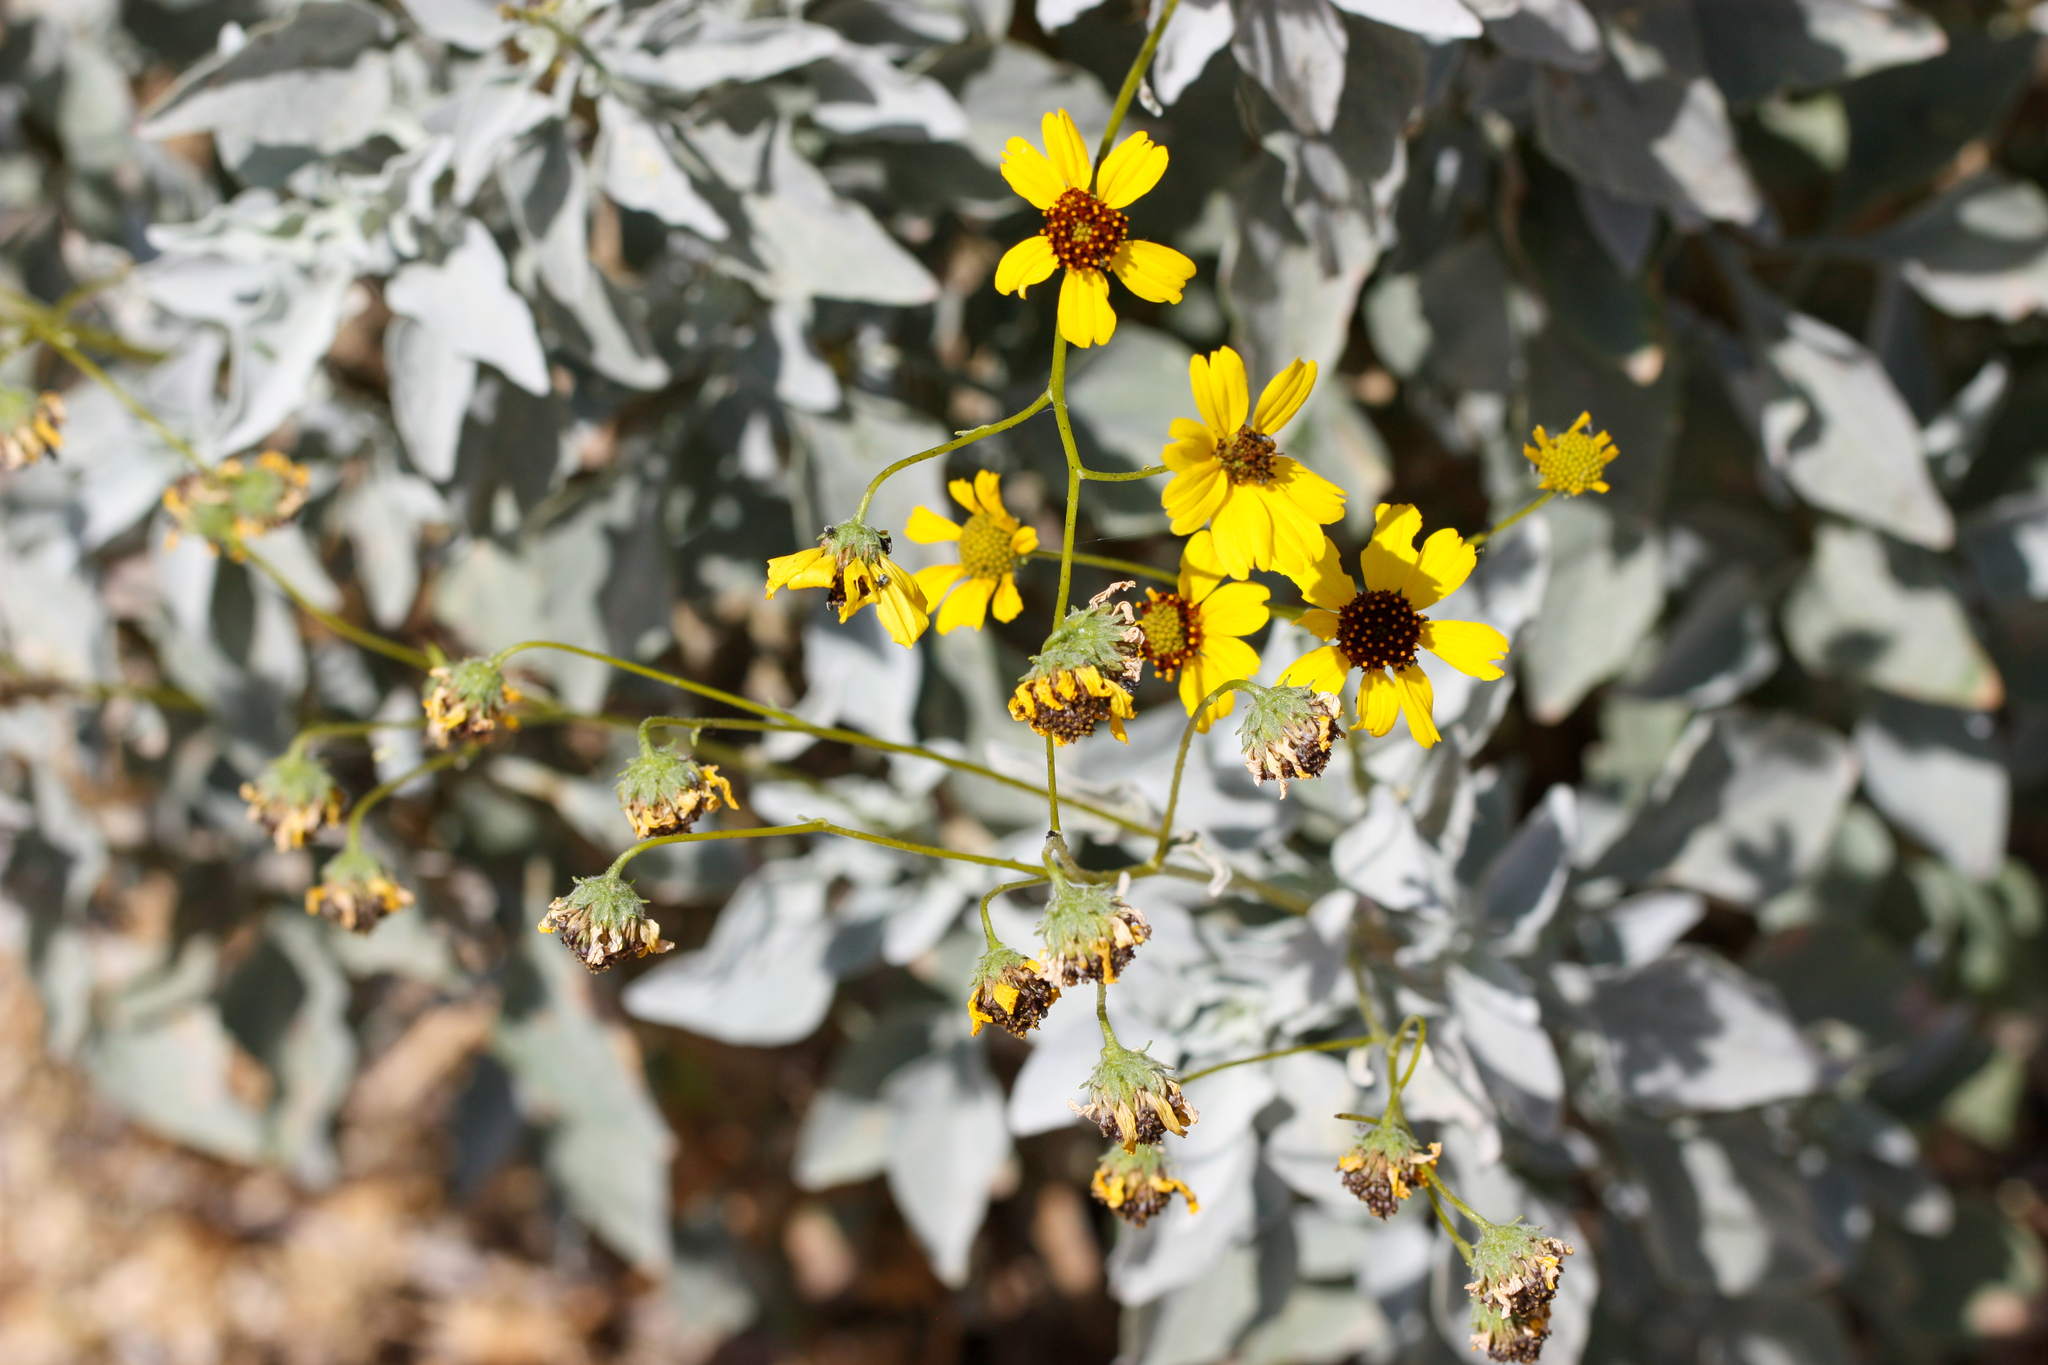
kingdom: Plantae
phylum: Tracheophyta
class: Magnoliopsida
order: Asterales
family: Asteraceae
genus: Encelia
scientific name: Encelia farinosa
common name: Brittlebush
